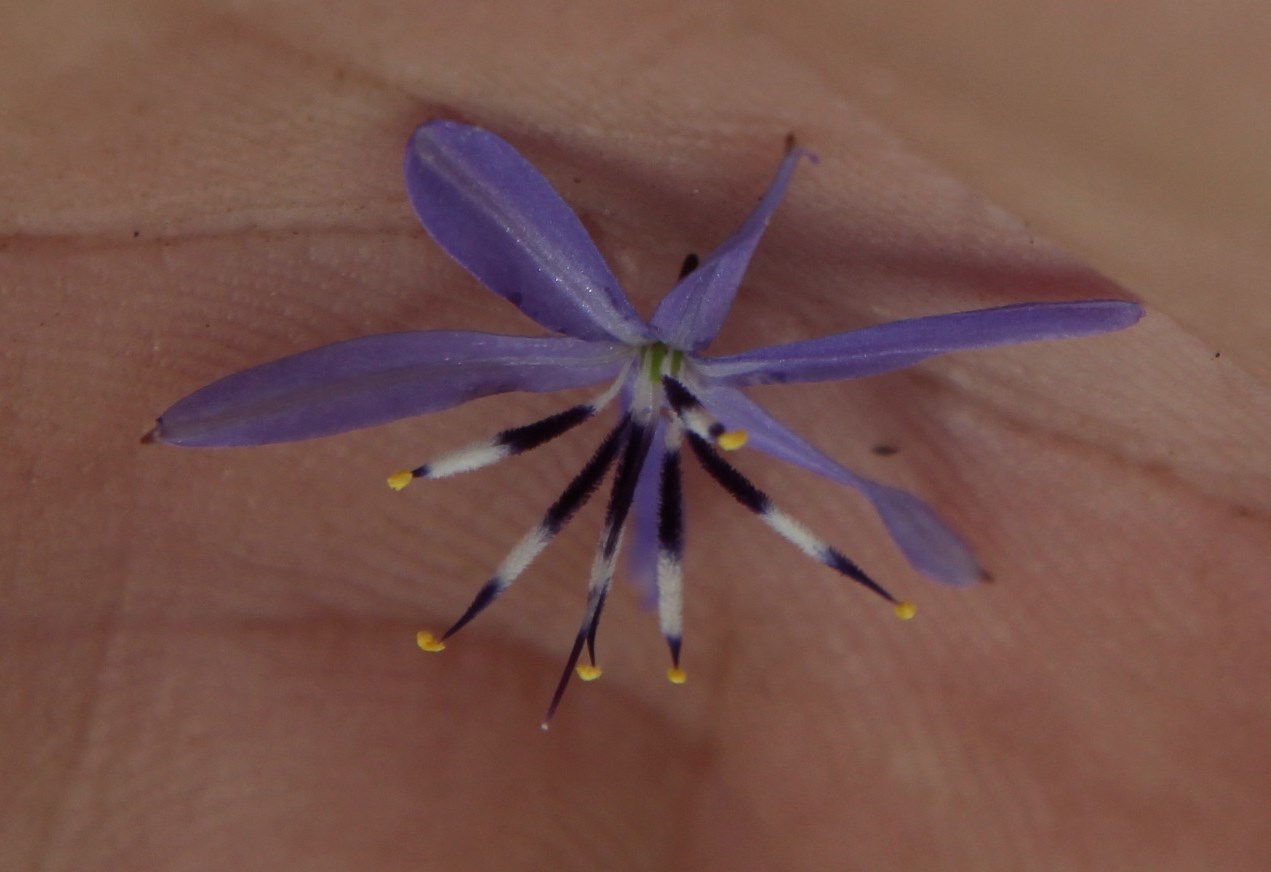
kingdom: Plantae
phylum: Tracheophyta
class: Liliopsida
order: Asparagales
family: Asphodelaceae
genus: Caesia
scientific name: Caesia contorta
